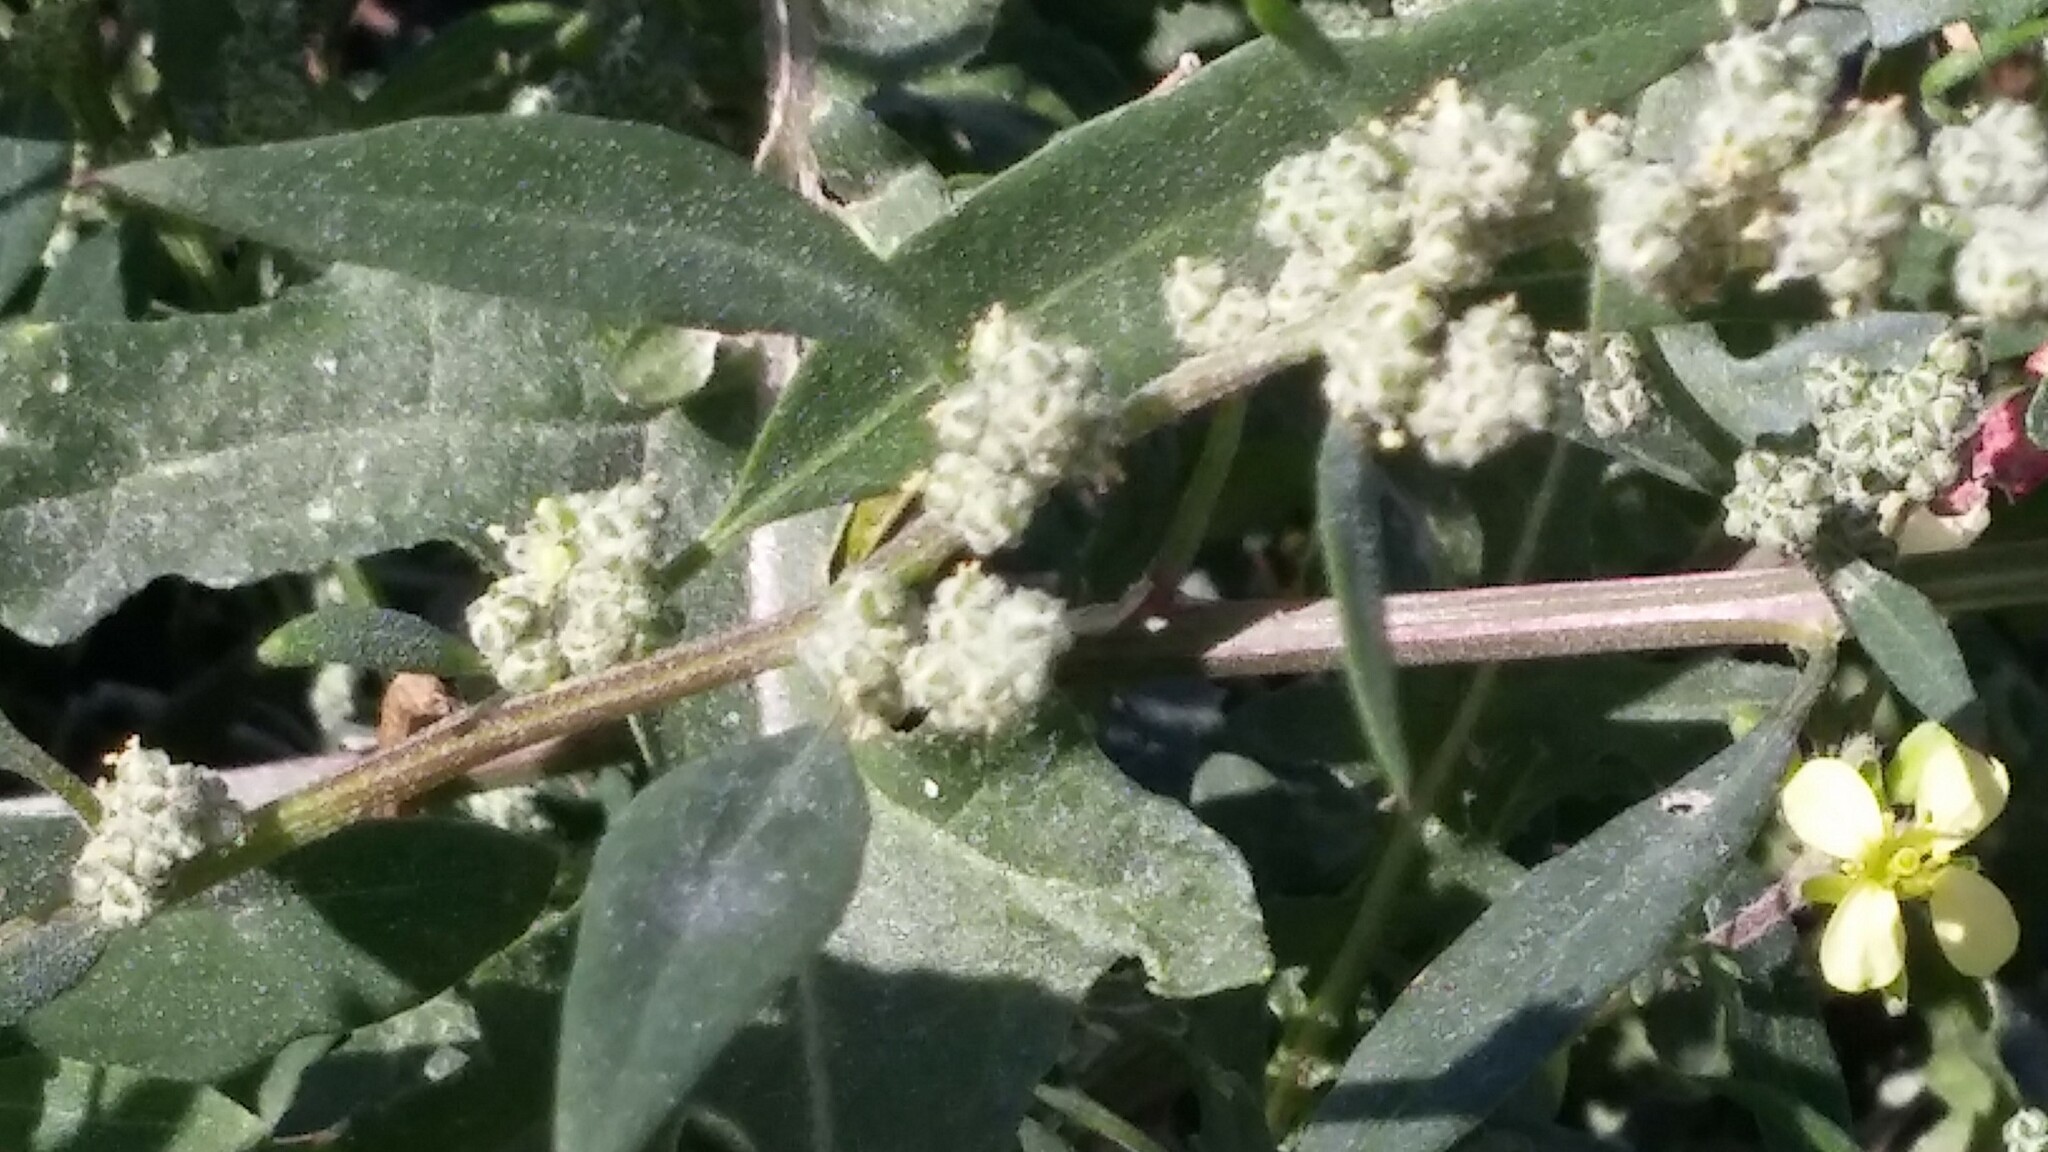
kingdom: Plantae
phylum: Tracheophyta
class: Magnoliopsida
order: Caryophyllales
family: Amaranthaceae
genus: Chenopodium
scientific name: Chenopodium betaceum
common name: Striped goosefoot
